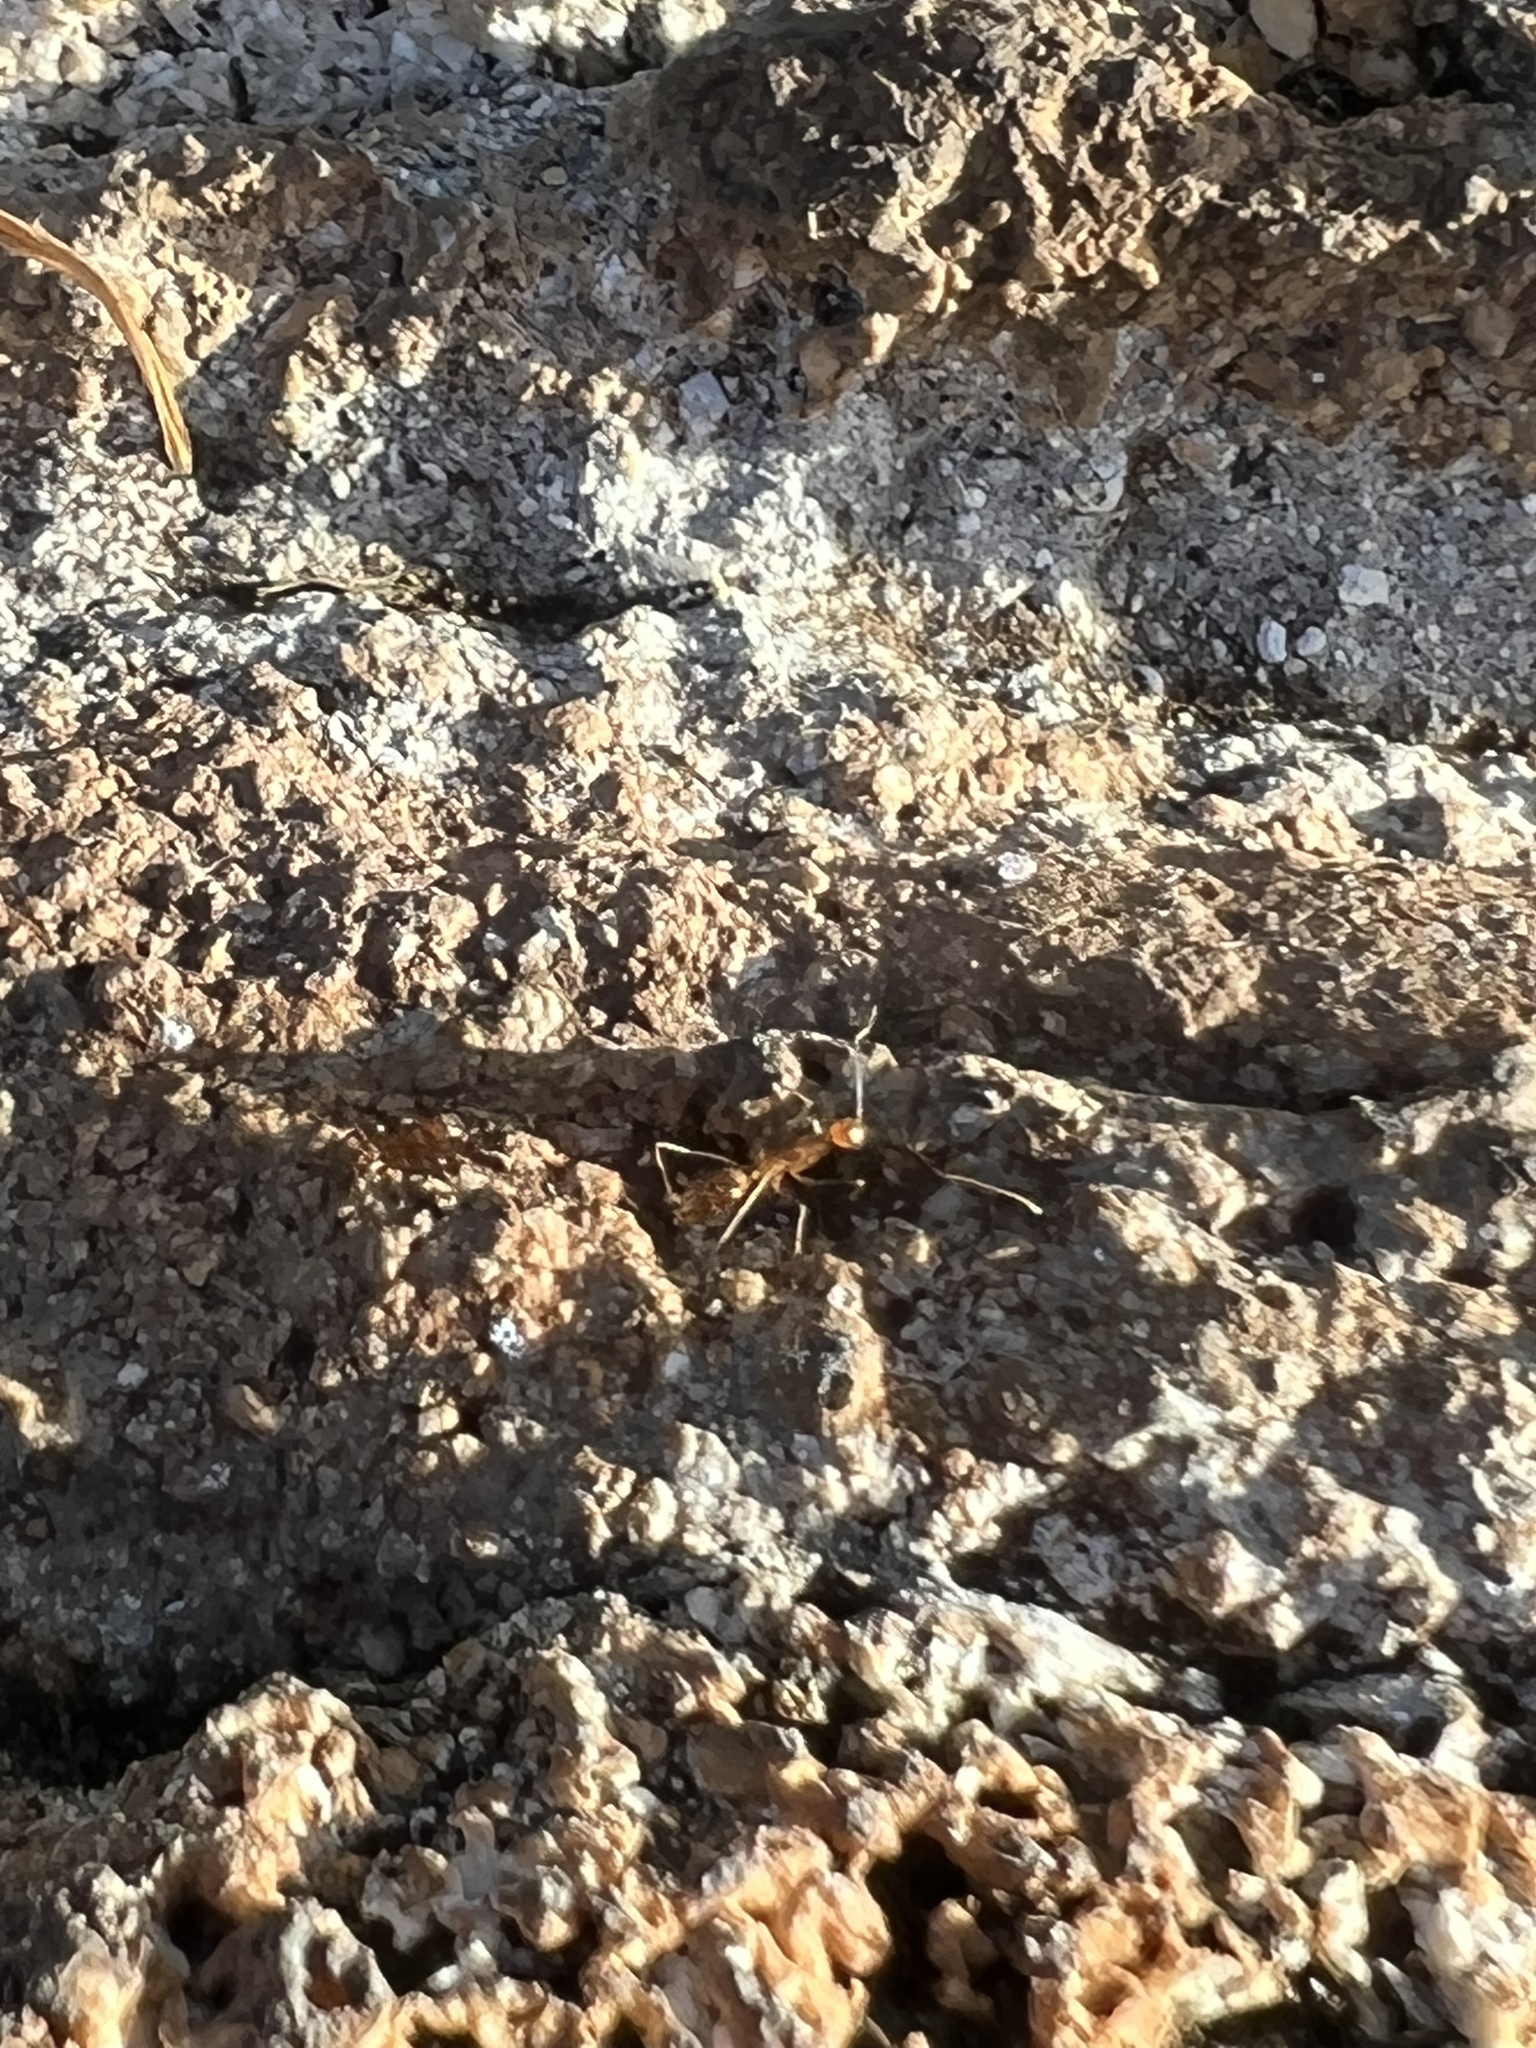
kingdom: Animalia
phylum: Arthropoda
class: Insecta
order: Hymenoptera
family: Formicidae
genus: Anoplolepis
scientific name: Anoplolepis gracilipes
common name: Ant
